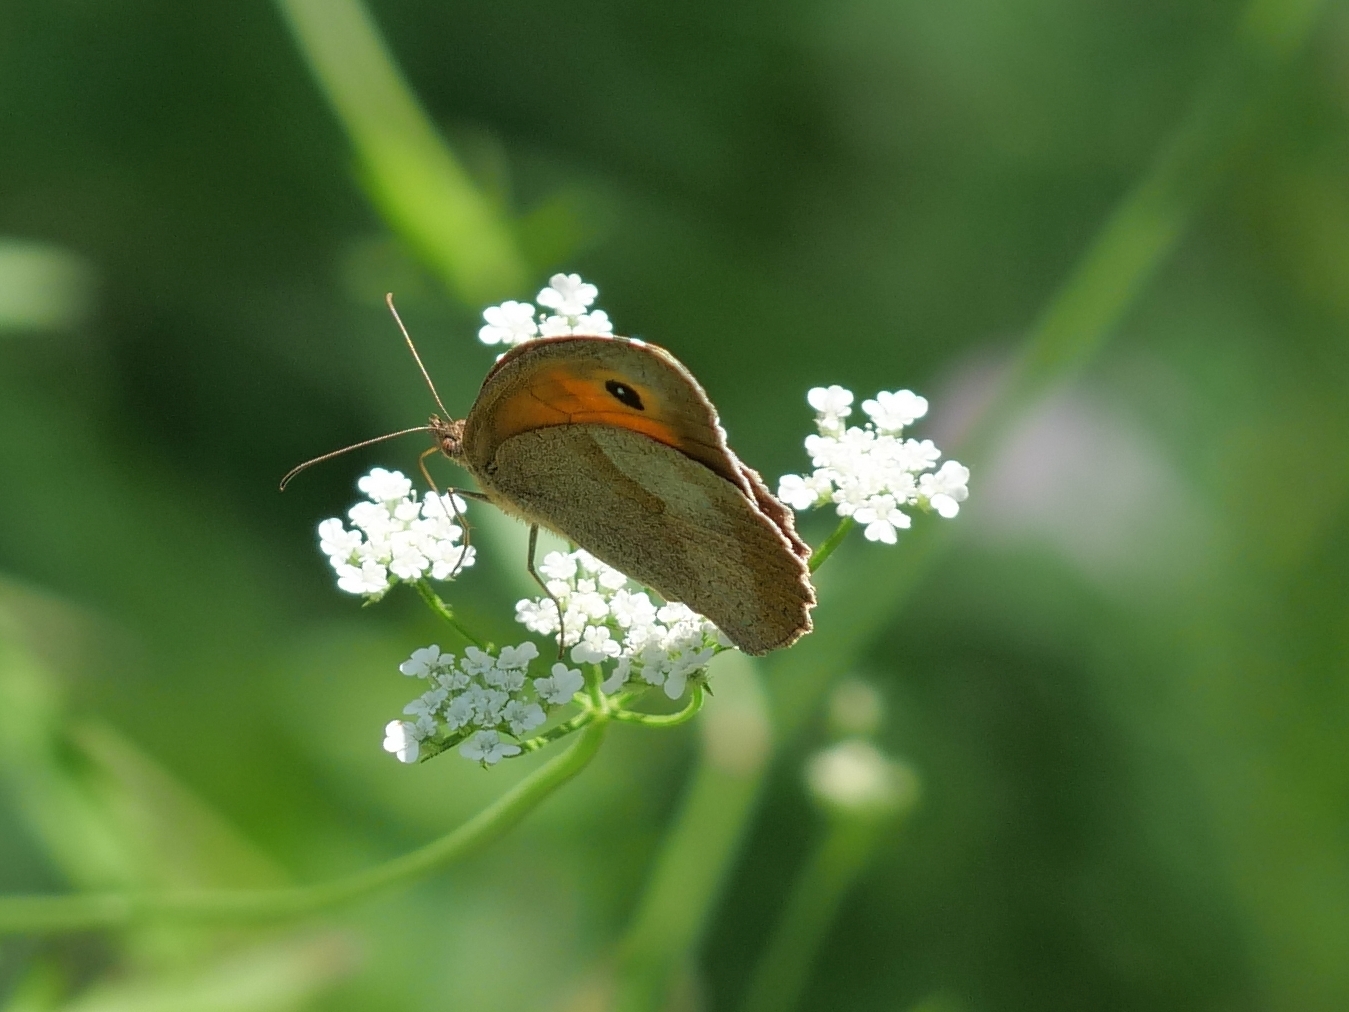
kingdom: Animalia
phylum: Arthropoda
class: Insecta
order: Lepidoptera
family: Nymphalidae
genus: Maniola
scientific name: Maniola jurtina
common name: Meadow brown
